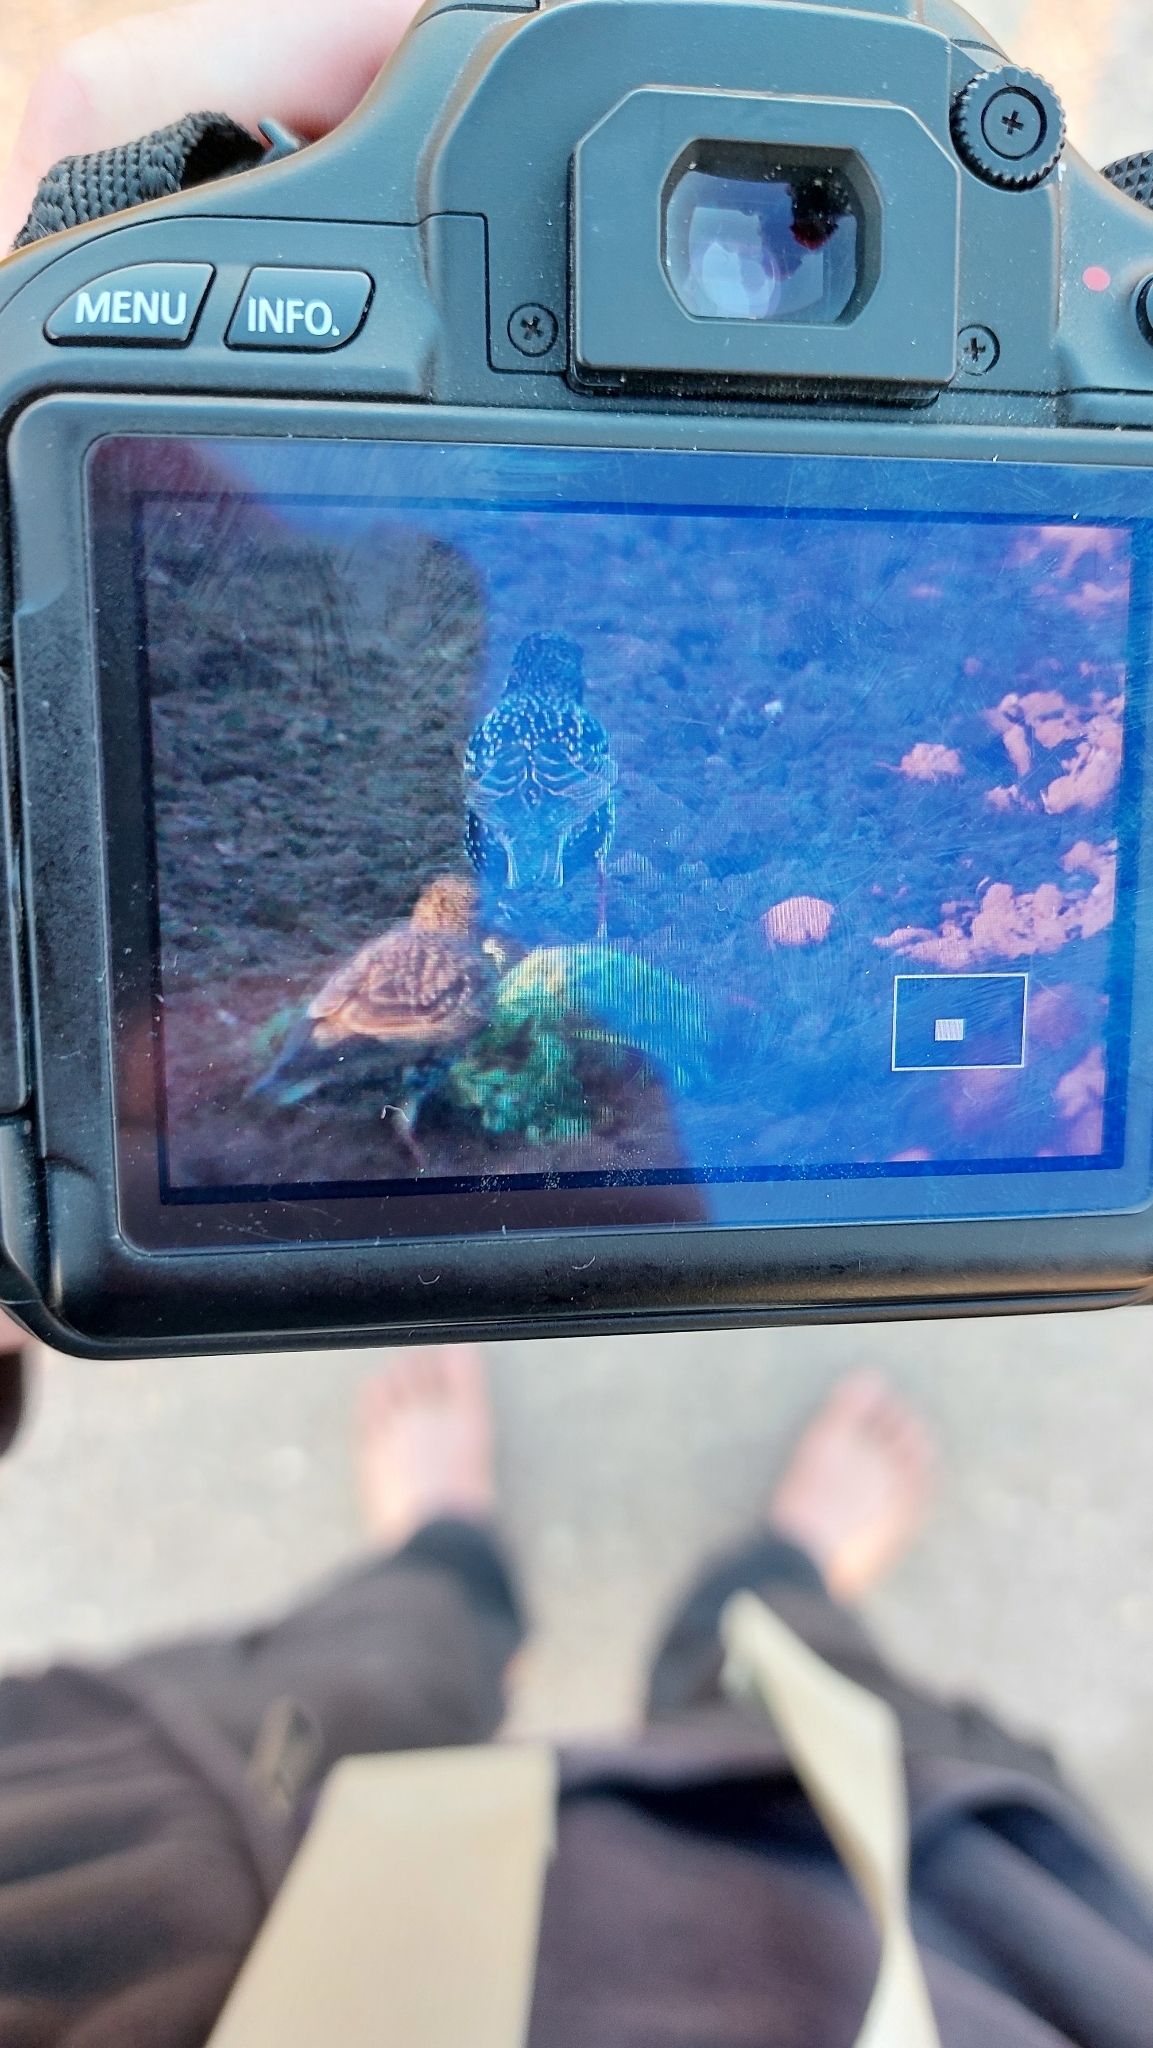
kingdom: Animalia
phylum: Chordata
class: Aves
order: Passeriformes
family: Sturnidae
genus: Sturnus
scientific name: Sturnus vulgaris
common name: Common starling
